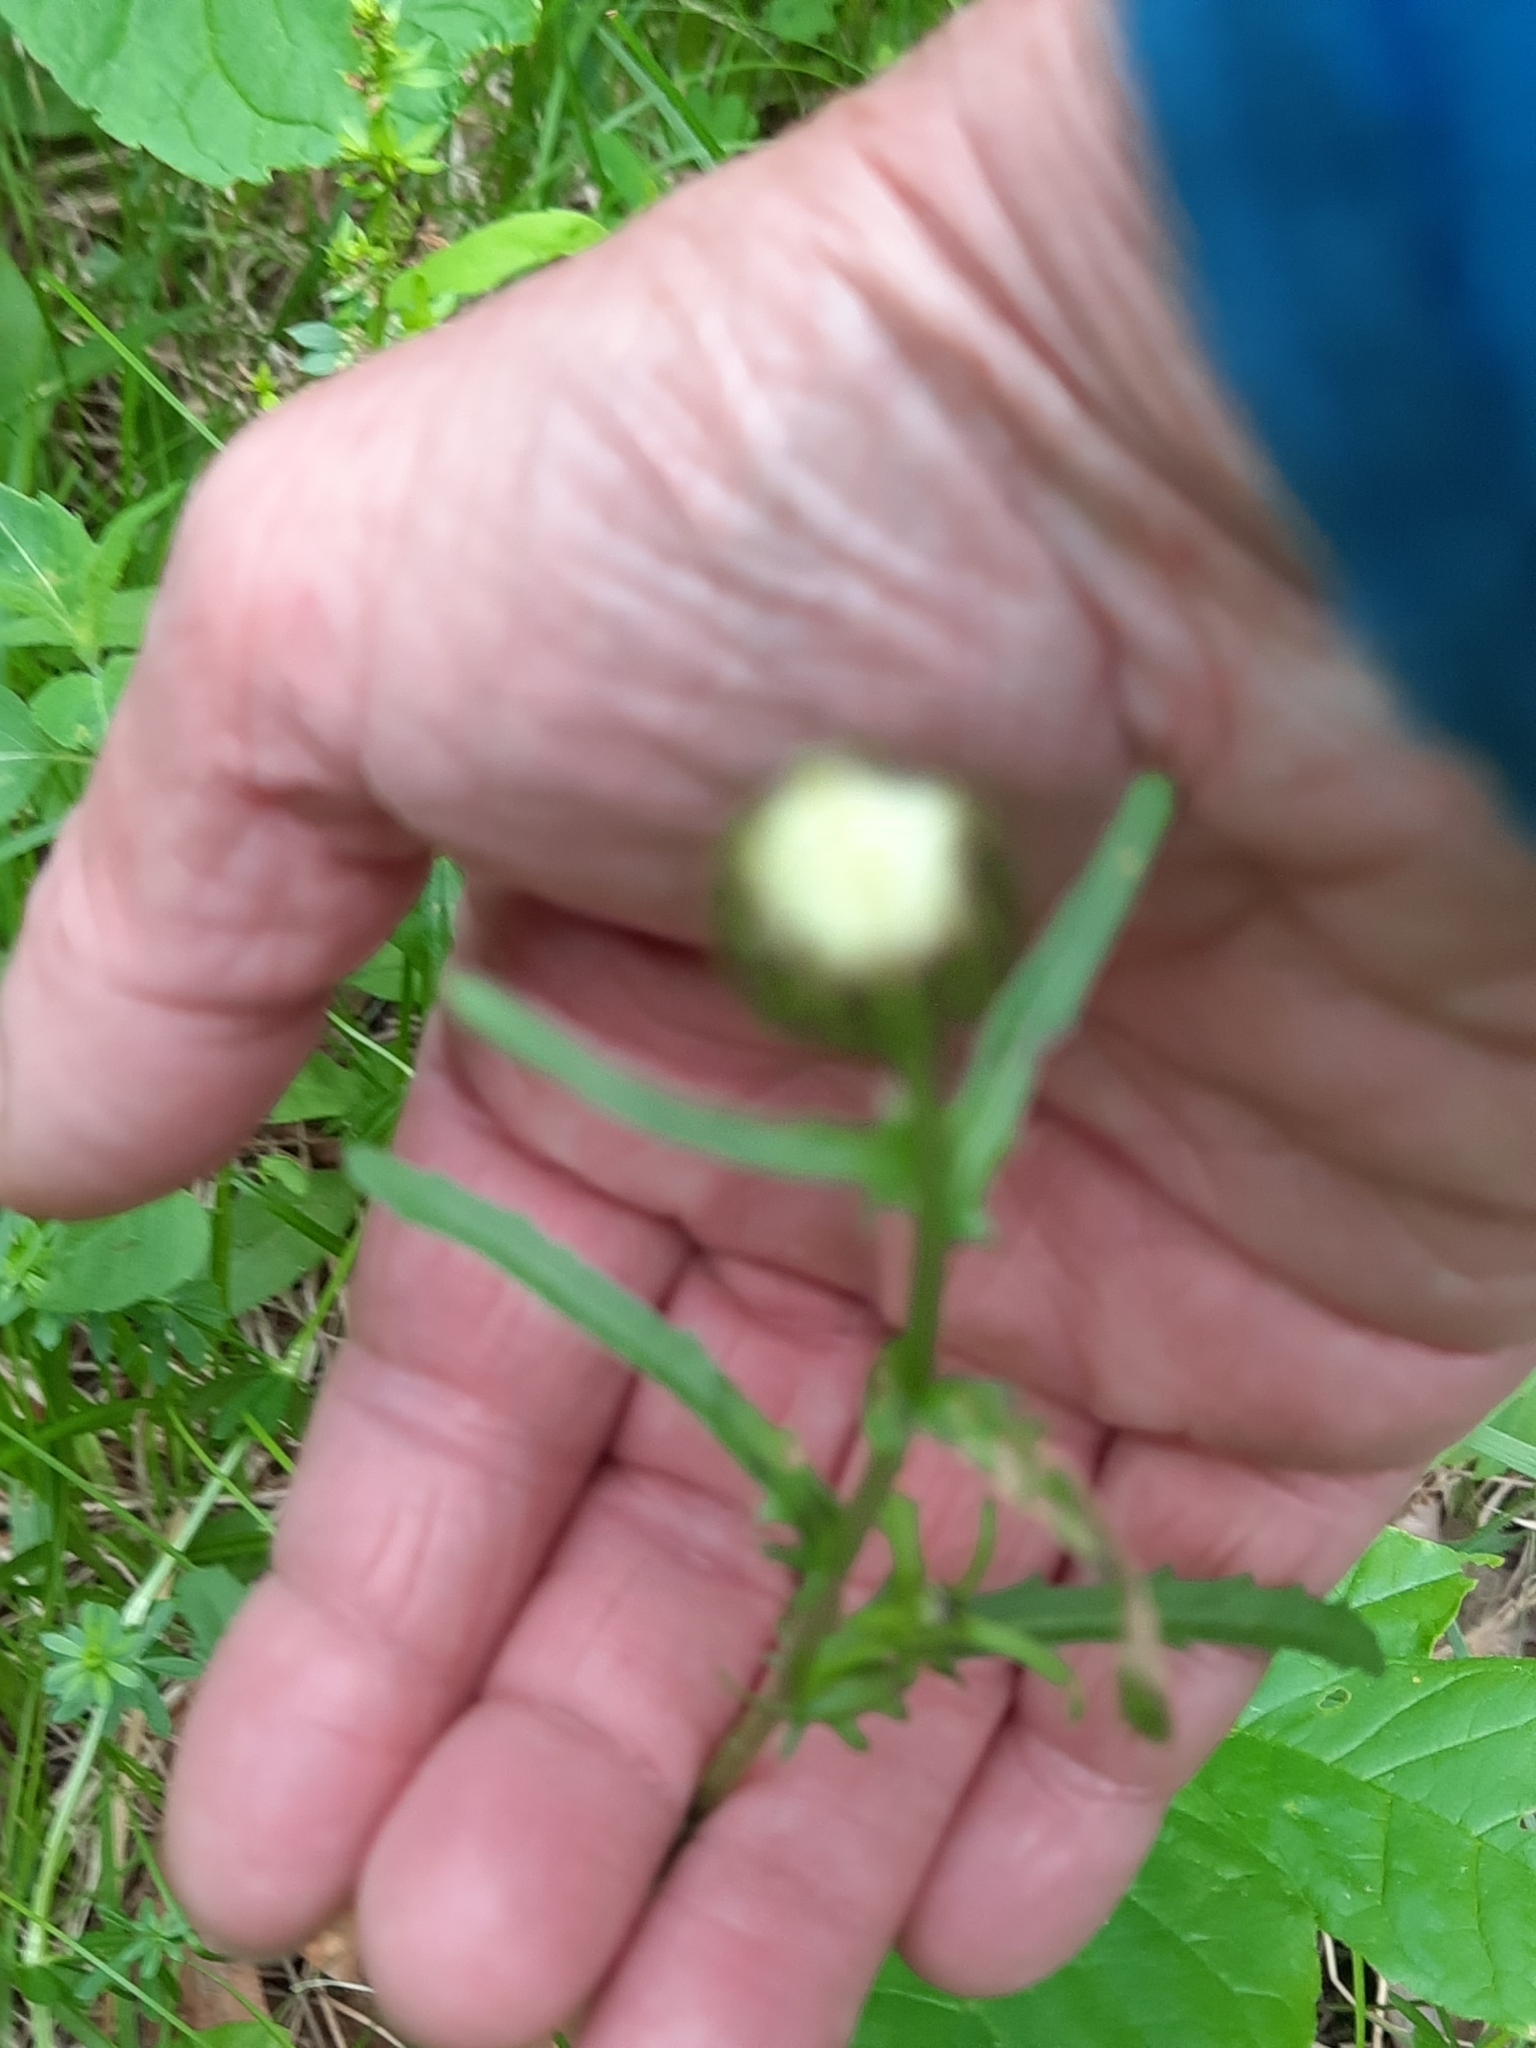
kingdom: Plantae
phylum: Tracheophyta
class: Magnoliopsida
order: Asterales
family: Asteraceae
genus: Leucanthemum
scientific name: Leucanthemum vulgare
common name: Oxeye daisy
